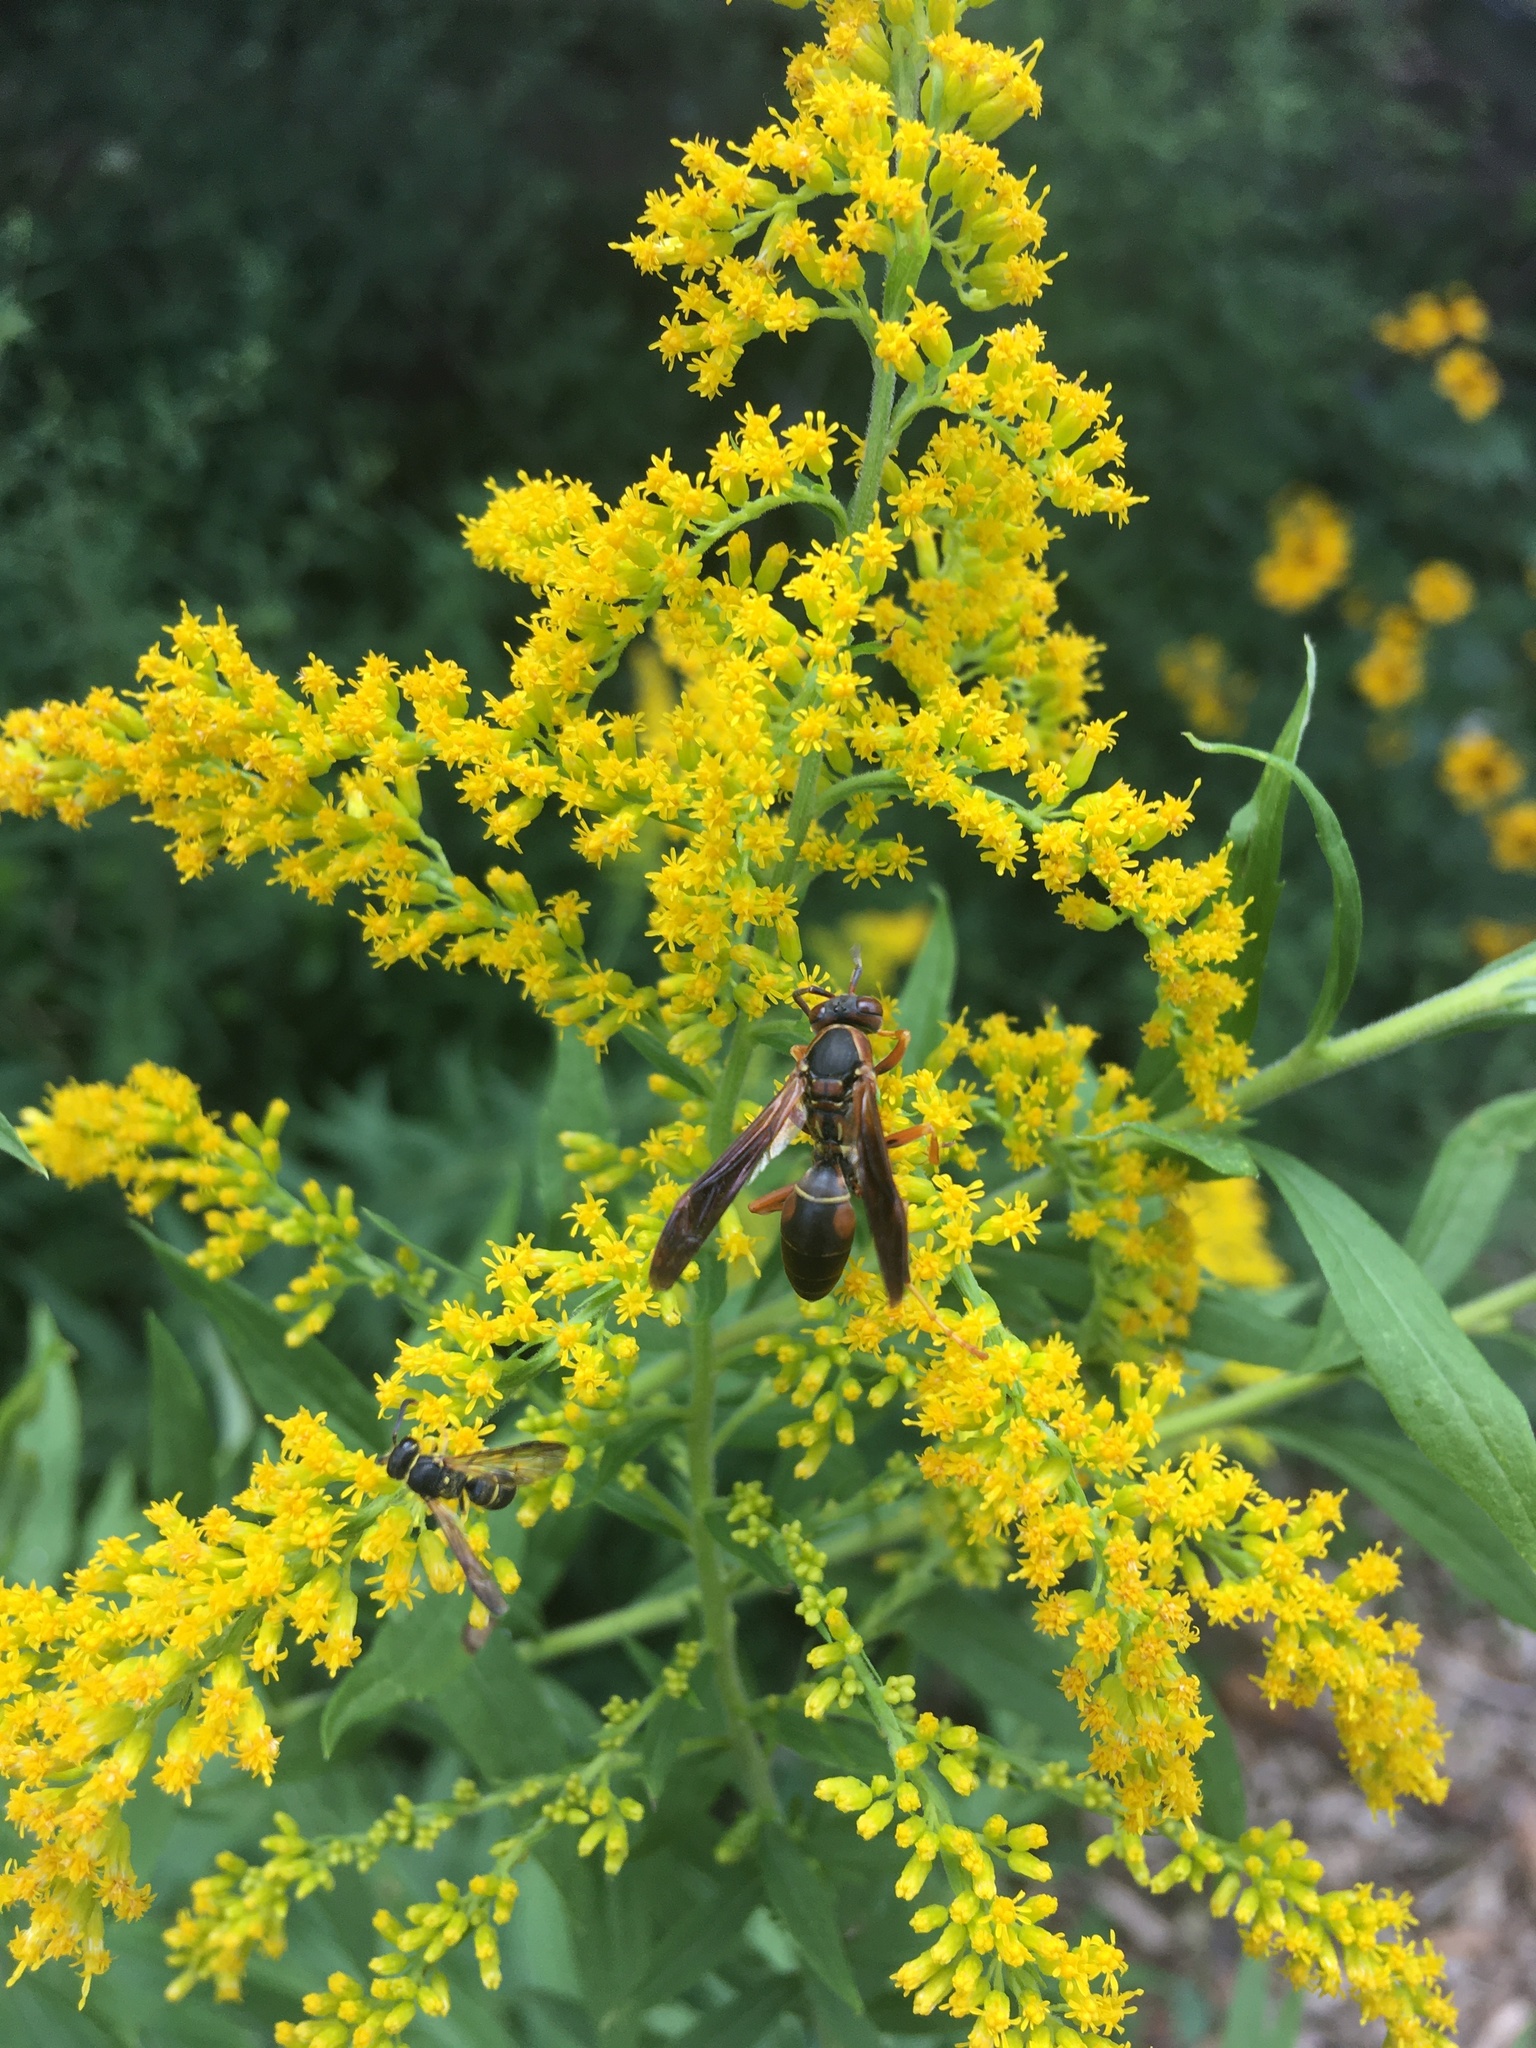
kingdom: Animalia
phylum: Arthropoda
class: Insecta
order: Hymenoptera
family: Eumenidae
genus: Polistes
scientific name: Polistes fuscatus
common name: Dark paper wasp
